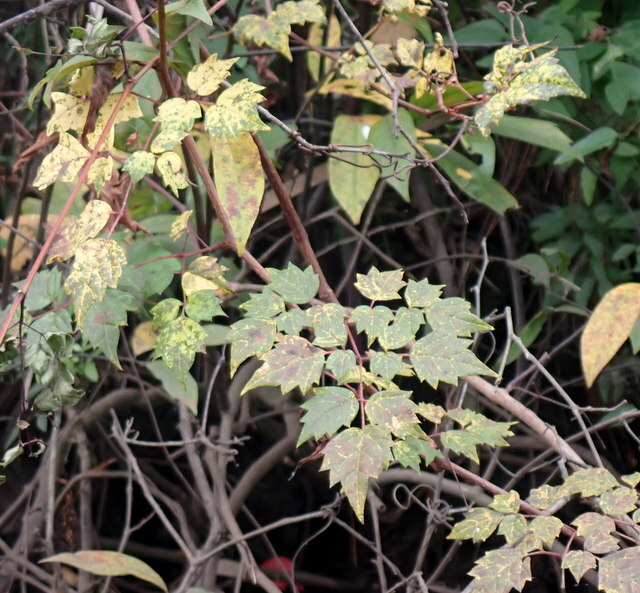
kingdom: Plantae
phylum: Tracheophyta
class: Magnoliopsida
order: Vitales
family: Vitaceae
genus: Nekemias
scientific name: Nekemias arborea
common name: Peppervine
